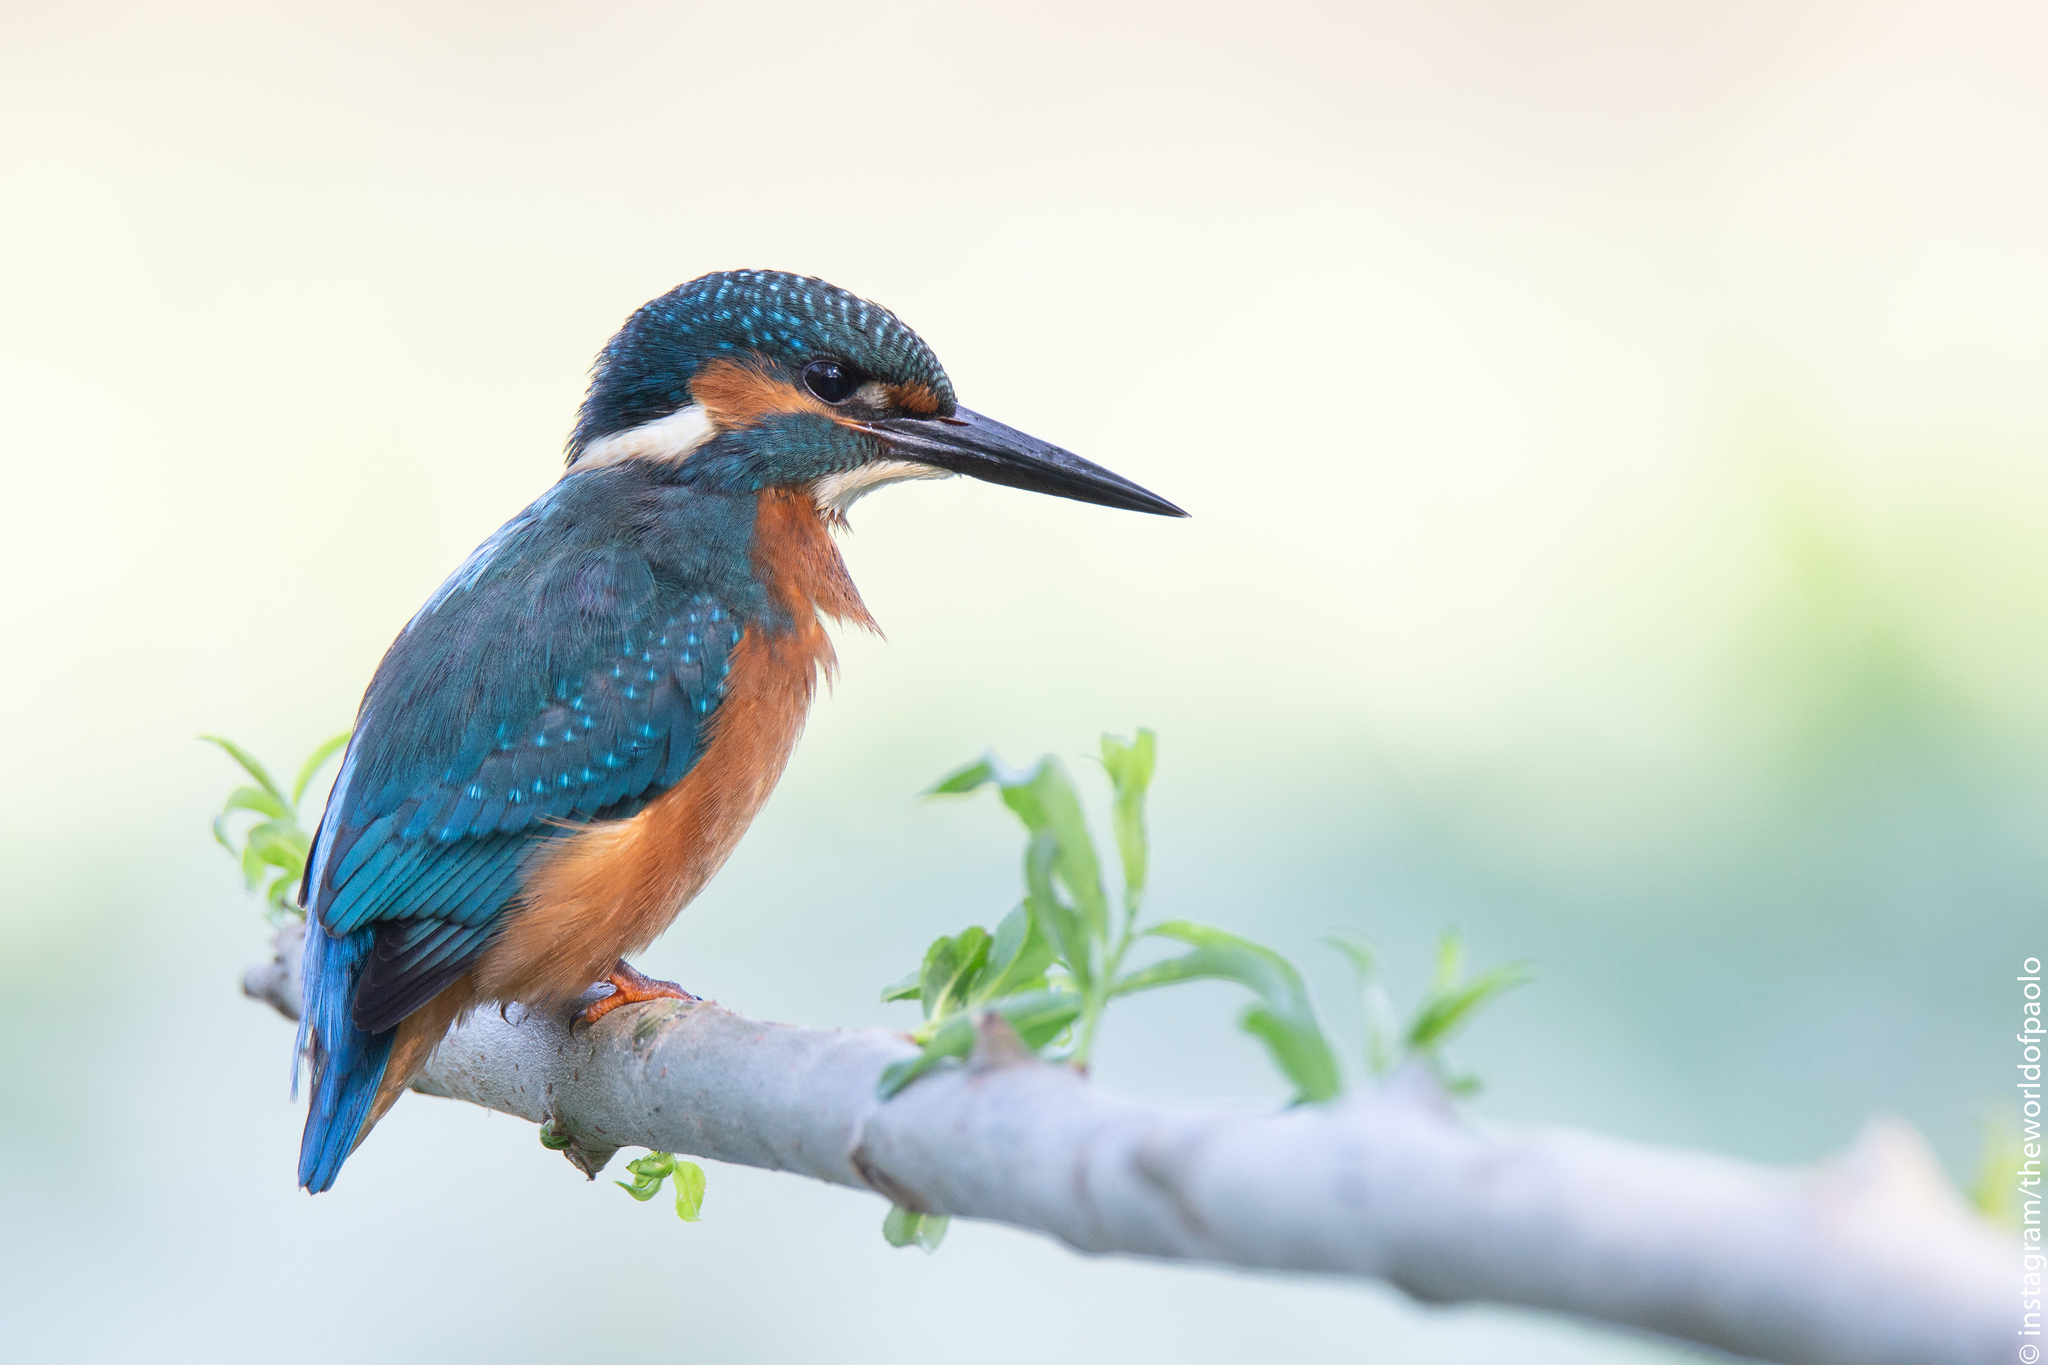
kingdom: Animalia
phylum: Chordata
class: Aves
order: Coraciiformes
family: Alcedinidae
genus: Alcedo
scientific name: Alcedo atthis
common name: Common kingfisher
